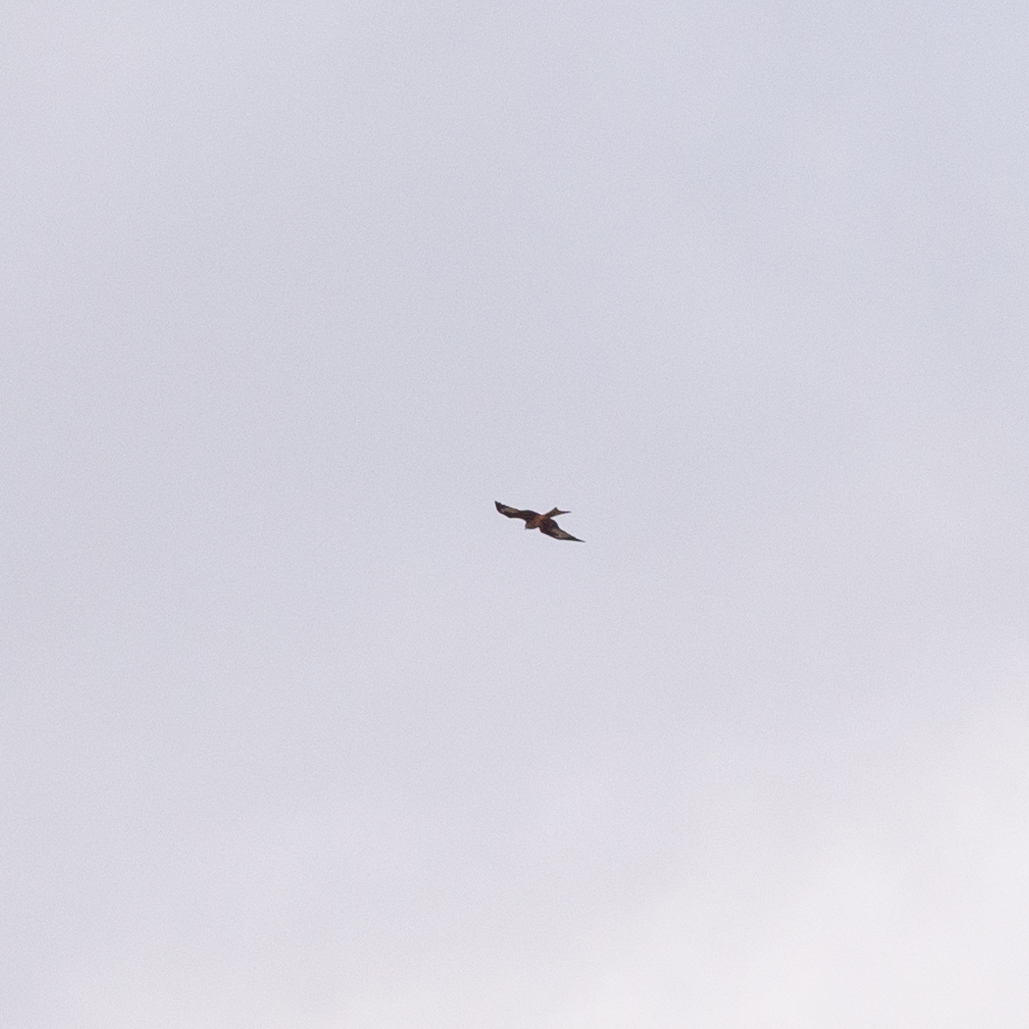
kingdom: Animalia
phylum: Chordata
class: Aves
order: Accipitriformes
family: Accipitridae
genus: Milvus
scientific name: Milvus milvus
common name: Red kite
